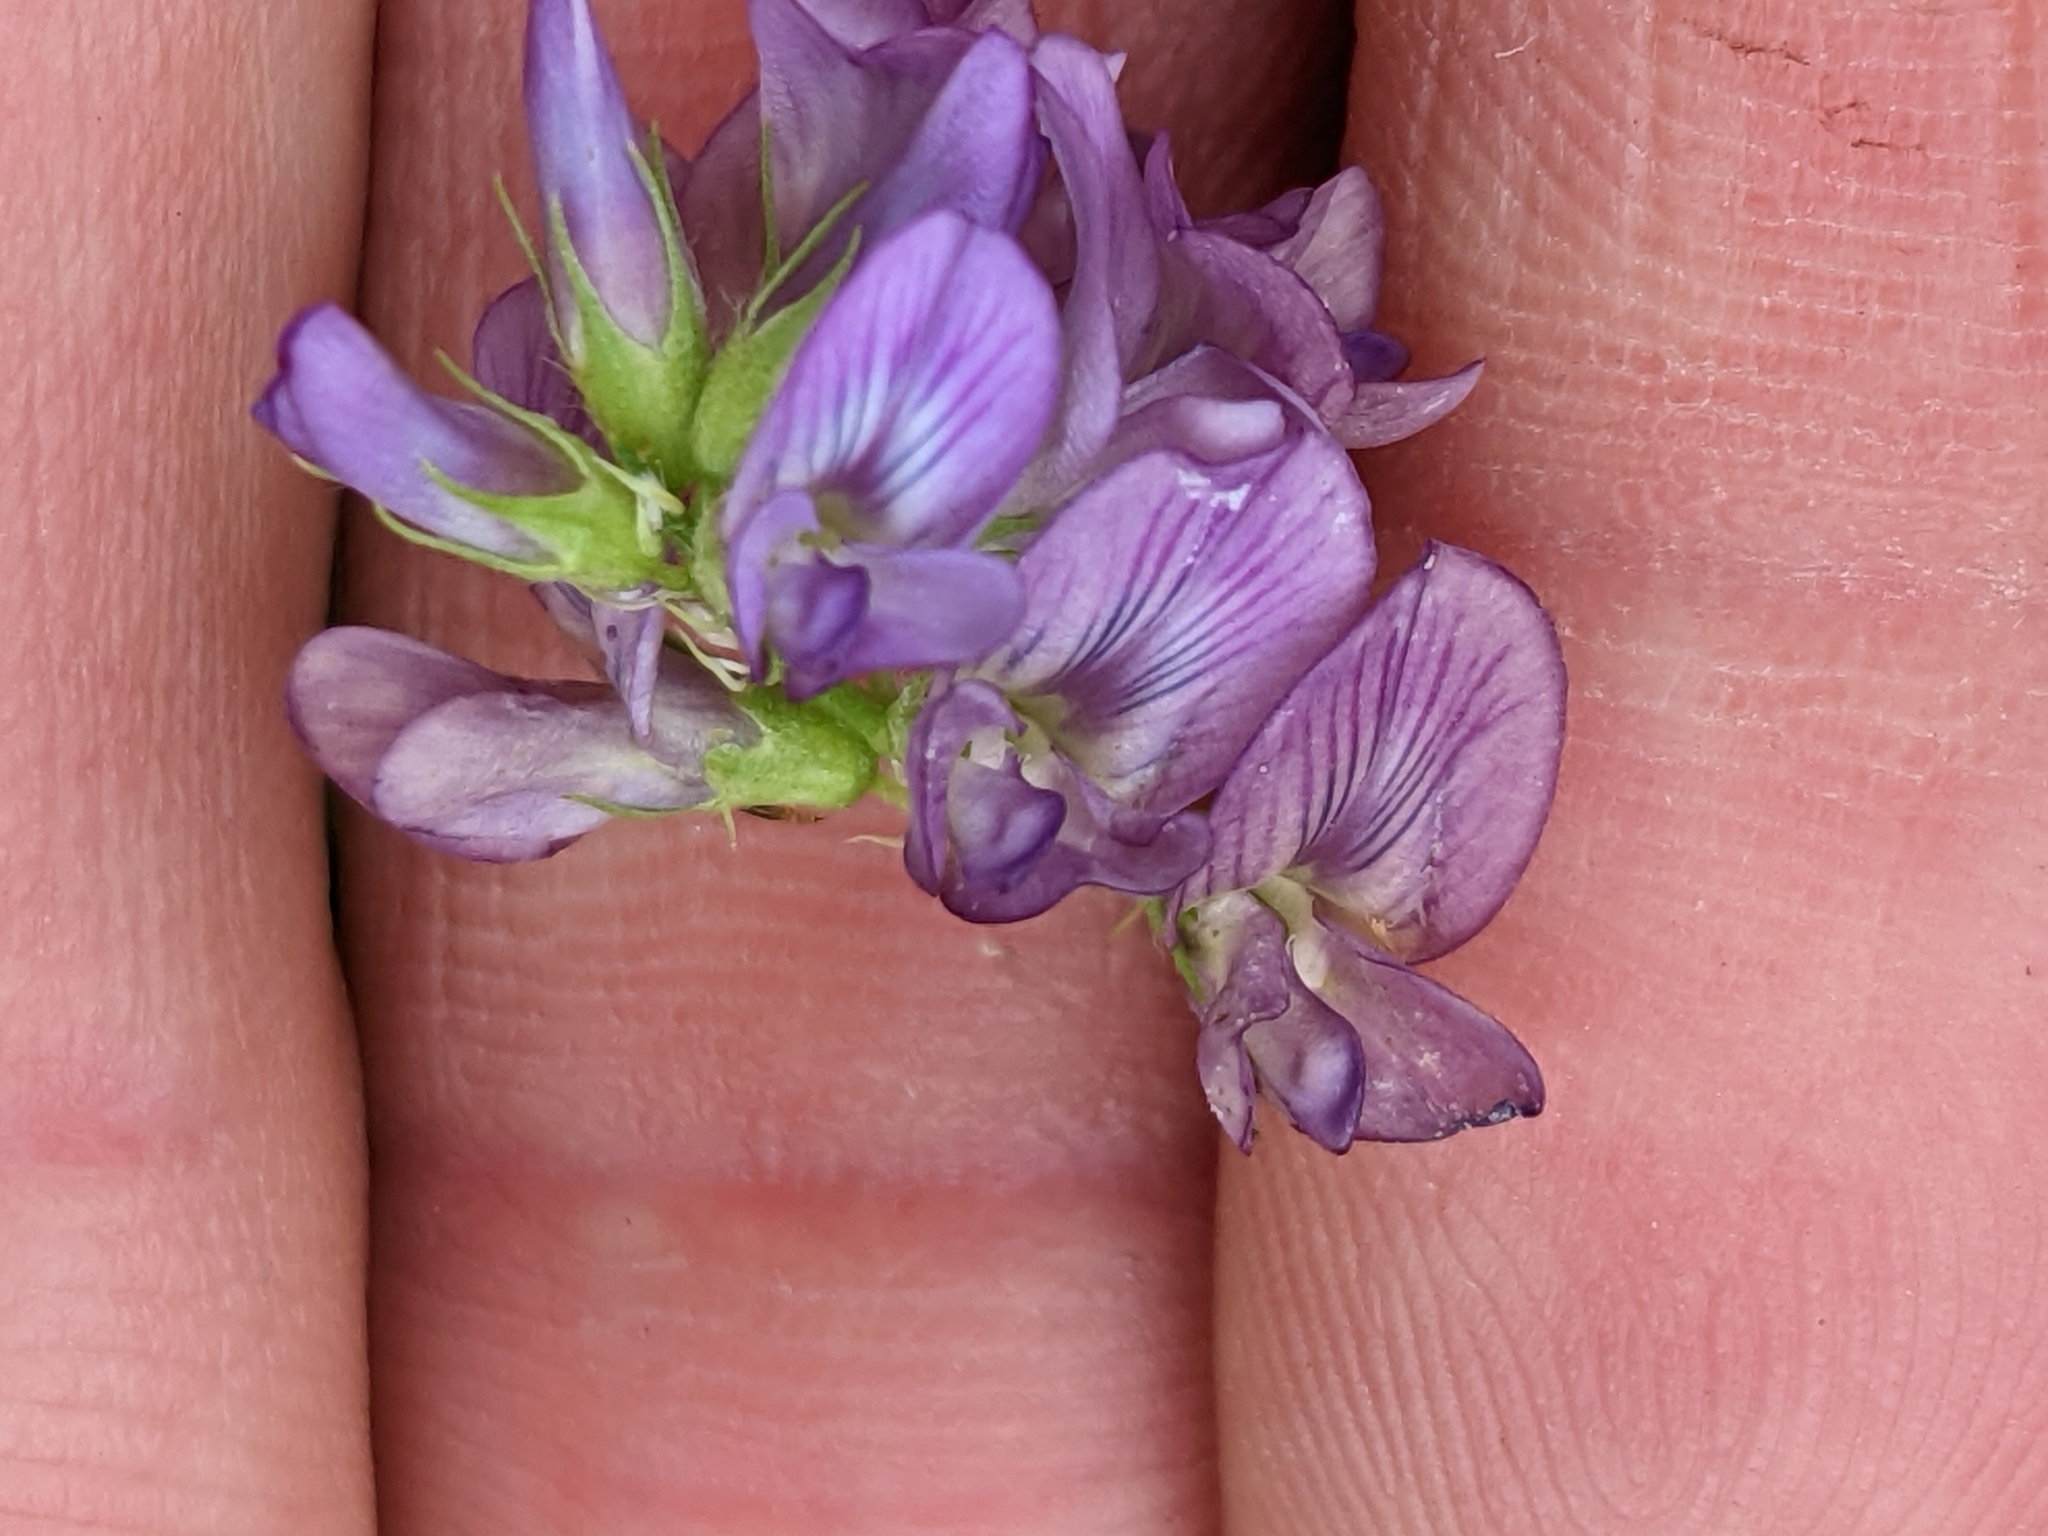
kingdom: Plantae
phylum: Tracheophyta
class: Magnoliopsida
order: Fabales
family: Fabaceae
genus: Medicago
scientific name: Medicago sativa
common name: Alfalfa
